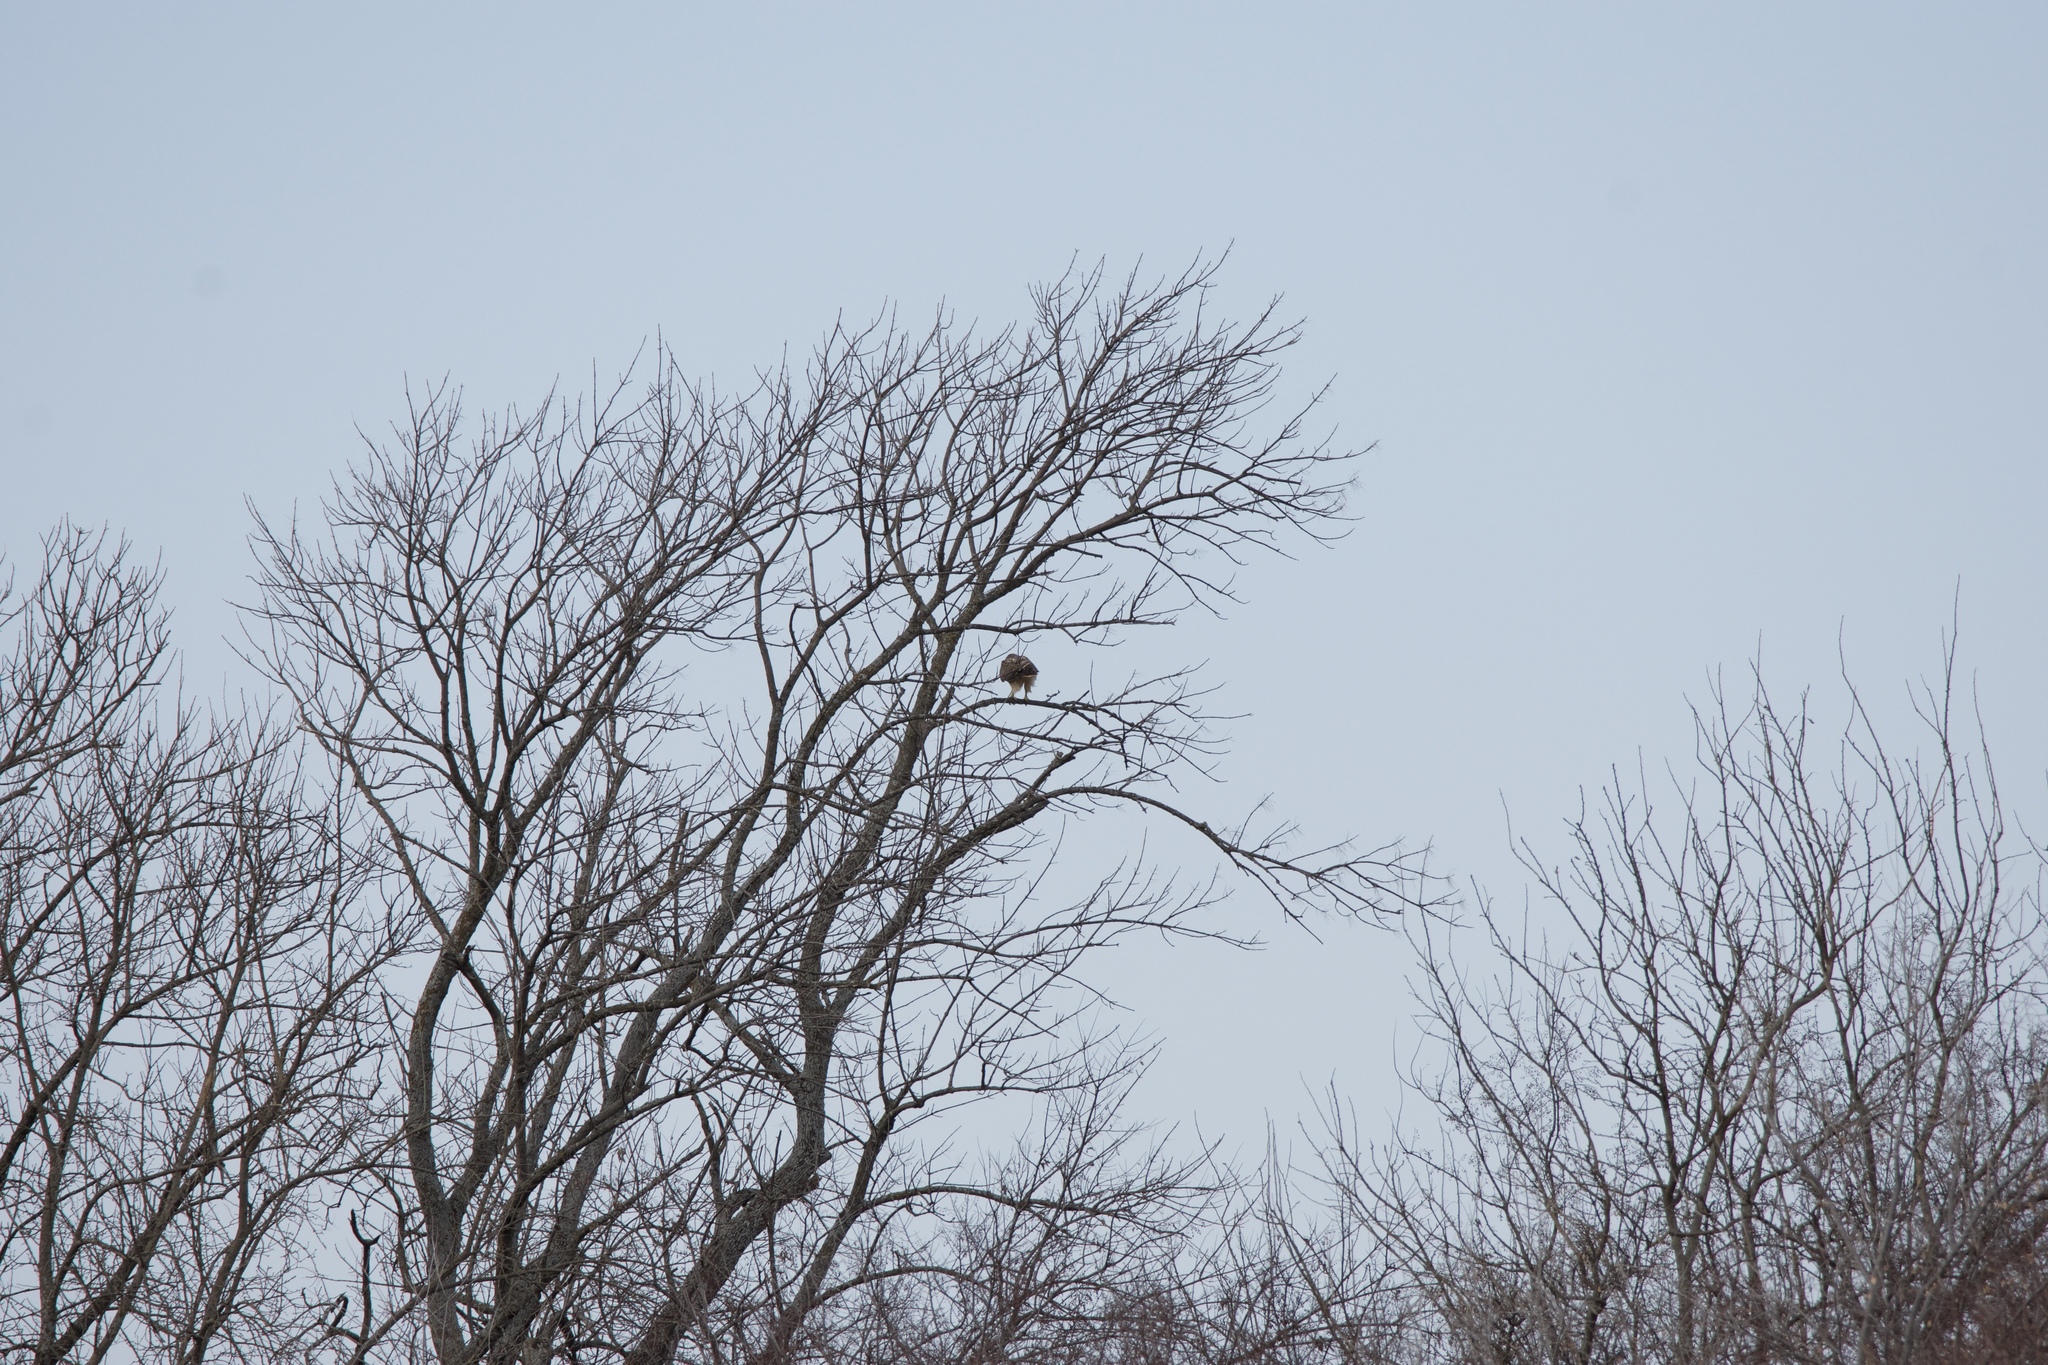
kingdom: Animalia
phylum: Chordata
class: Aves
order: Accipitriformes
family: Accipitridae
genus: Buteo
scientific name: Buteo jamaicensis
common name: Red-tailed hawk
